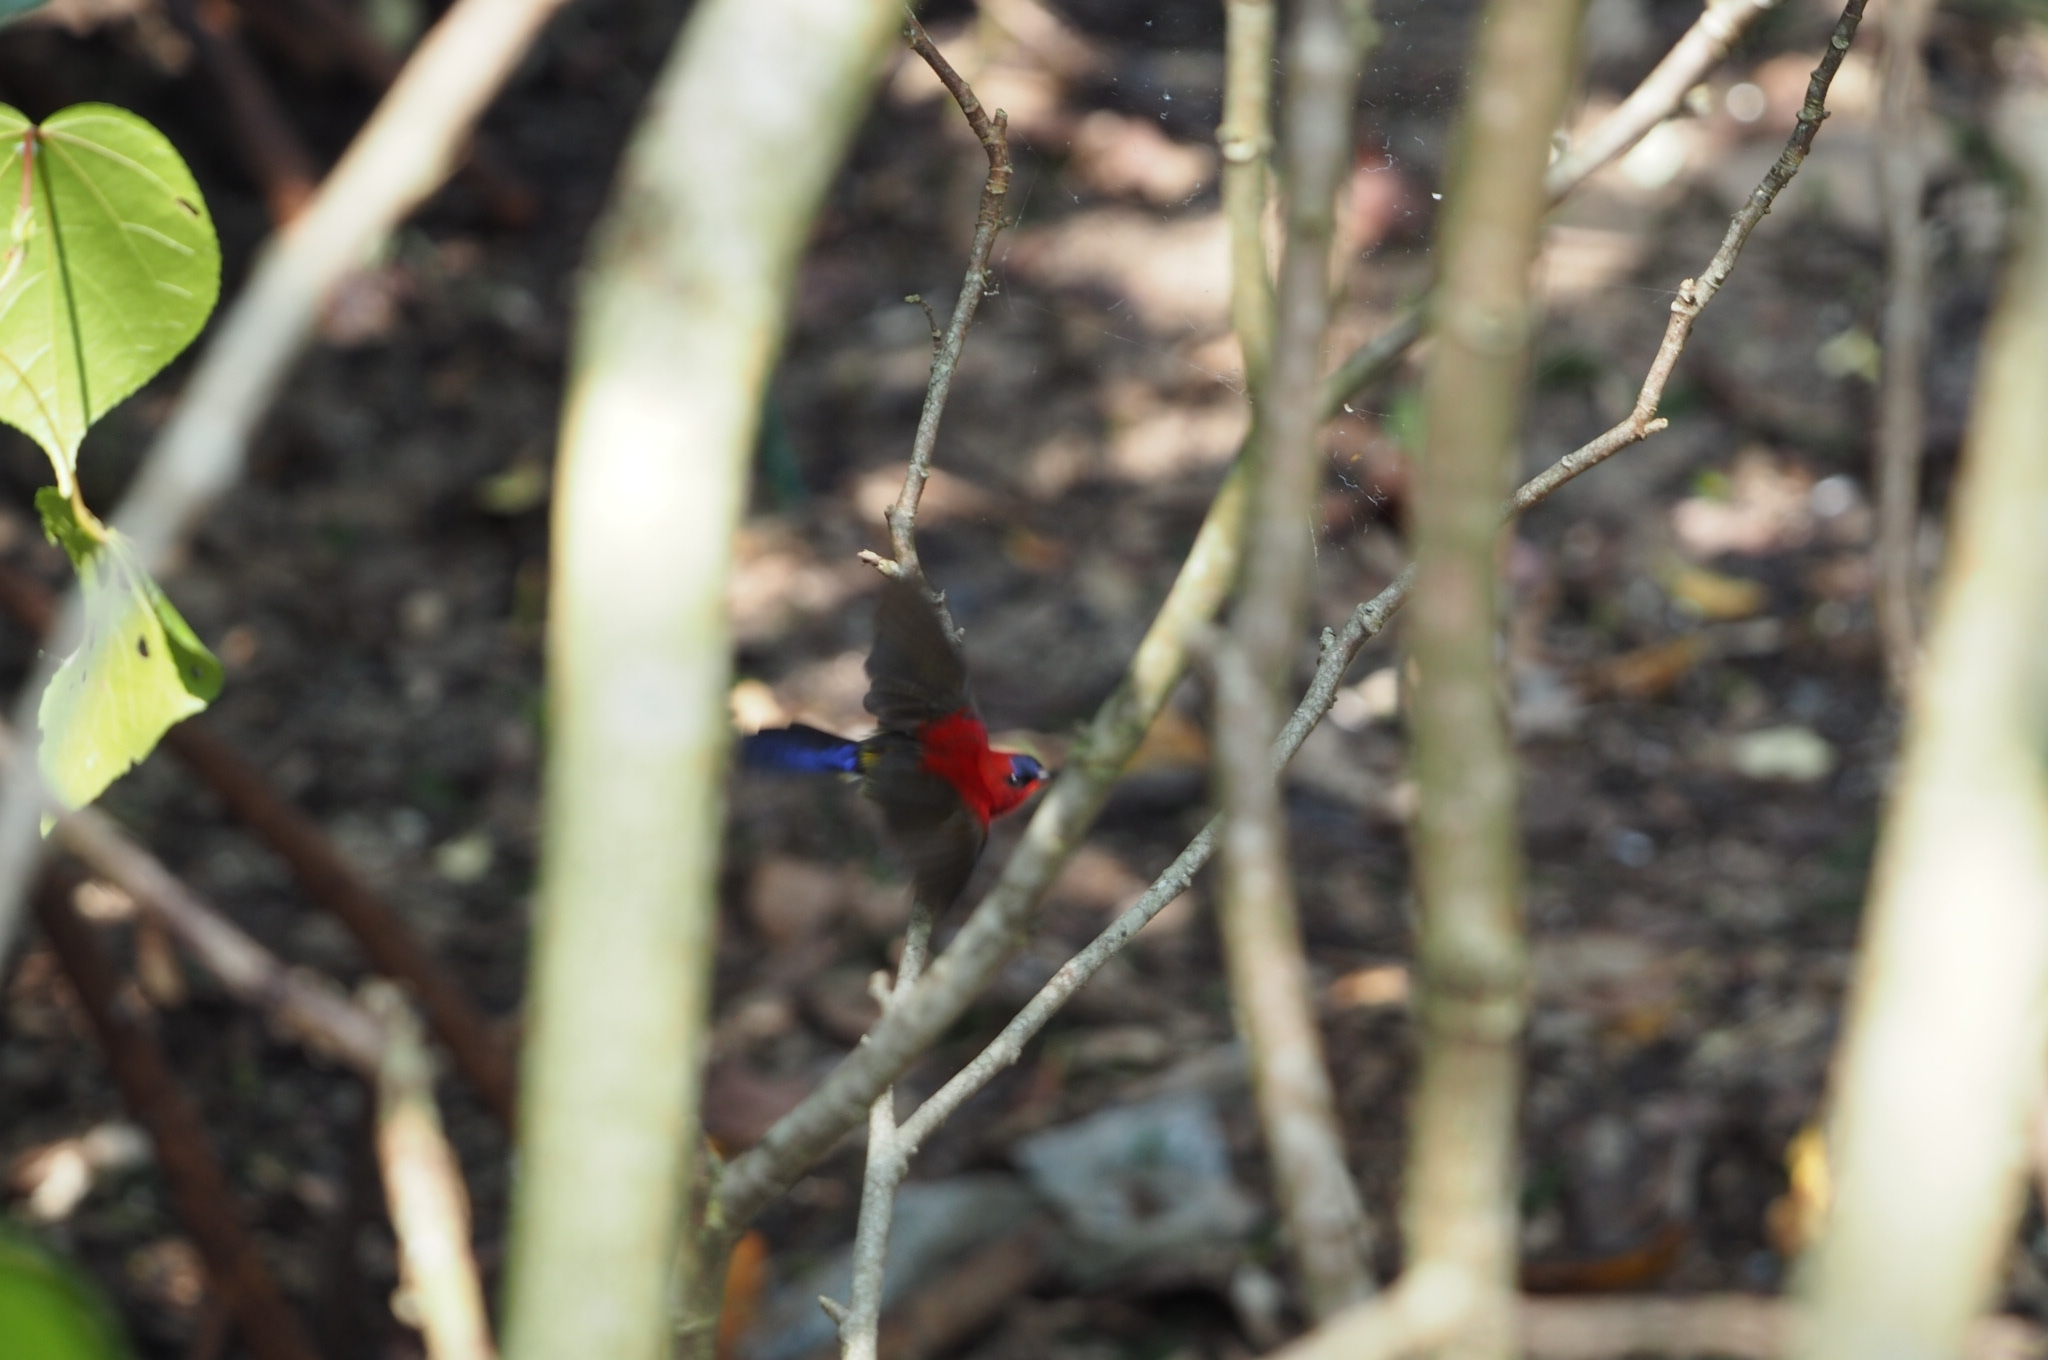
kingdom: Animalia
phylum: Chordata
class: Aves
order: Passeriformes
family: Nectariniidae
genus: Aethopyga
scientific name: Aethopyga siparaja
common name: Crimson sunbird
